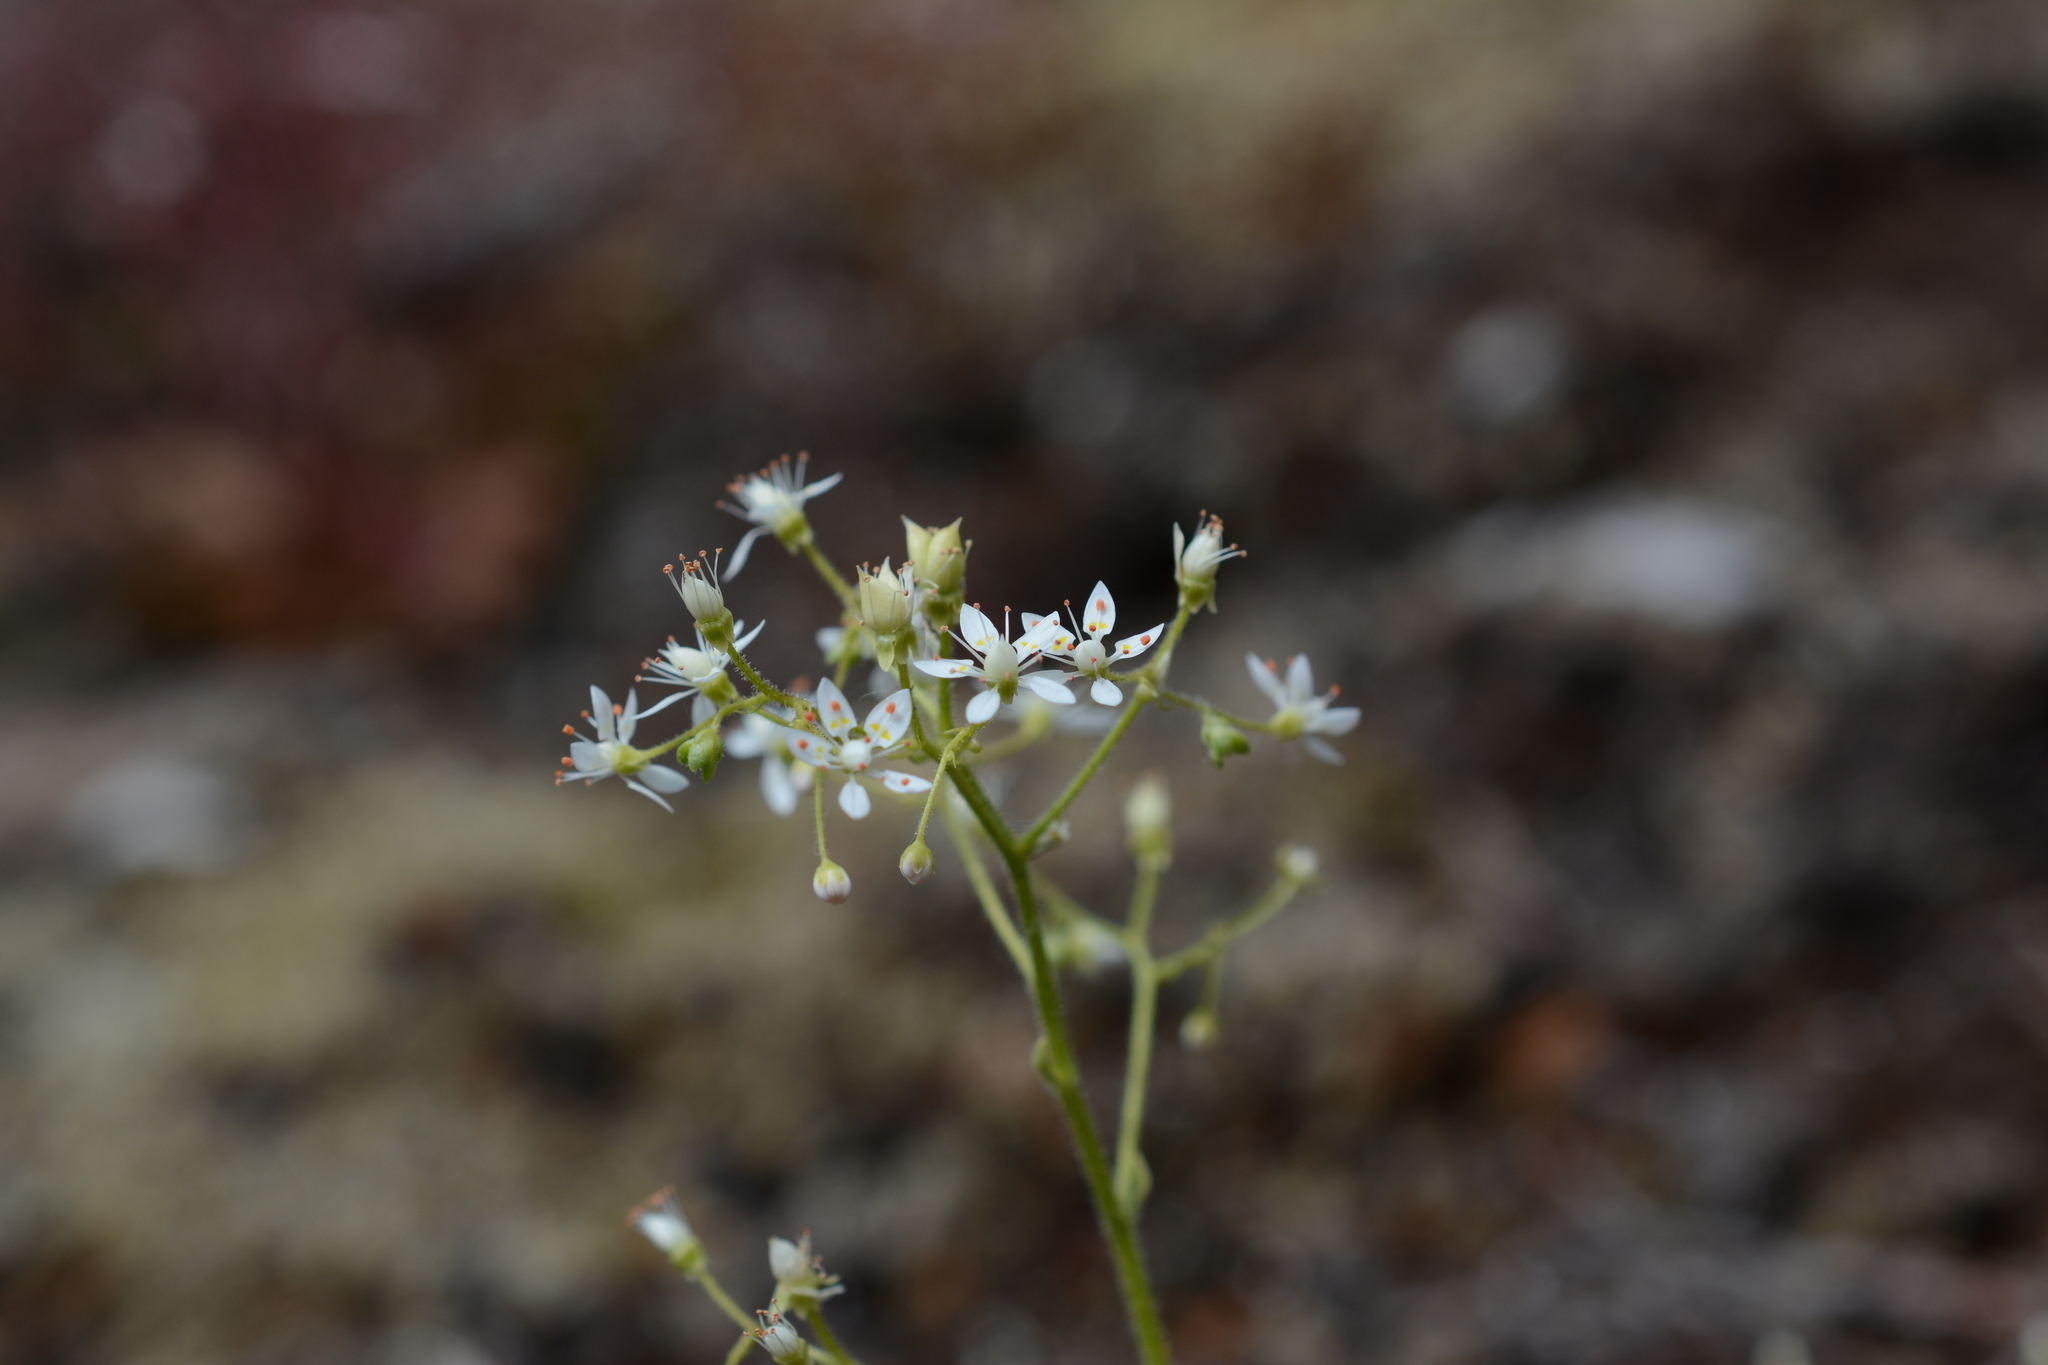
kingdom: Plantae
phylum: Tracheophyta
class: Magnoliopsida
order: Saxifragales
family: Saxifragaceae
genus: Micranthes
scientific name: Micranthes ferruginea
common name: Rusty saxifrage
